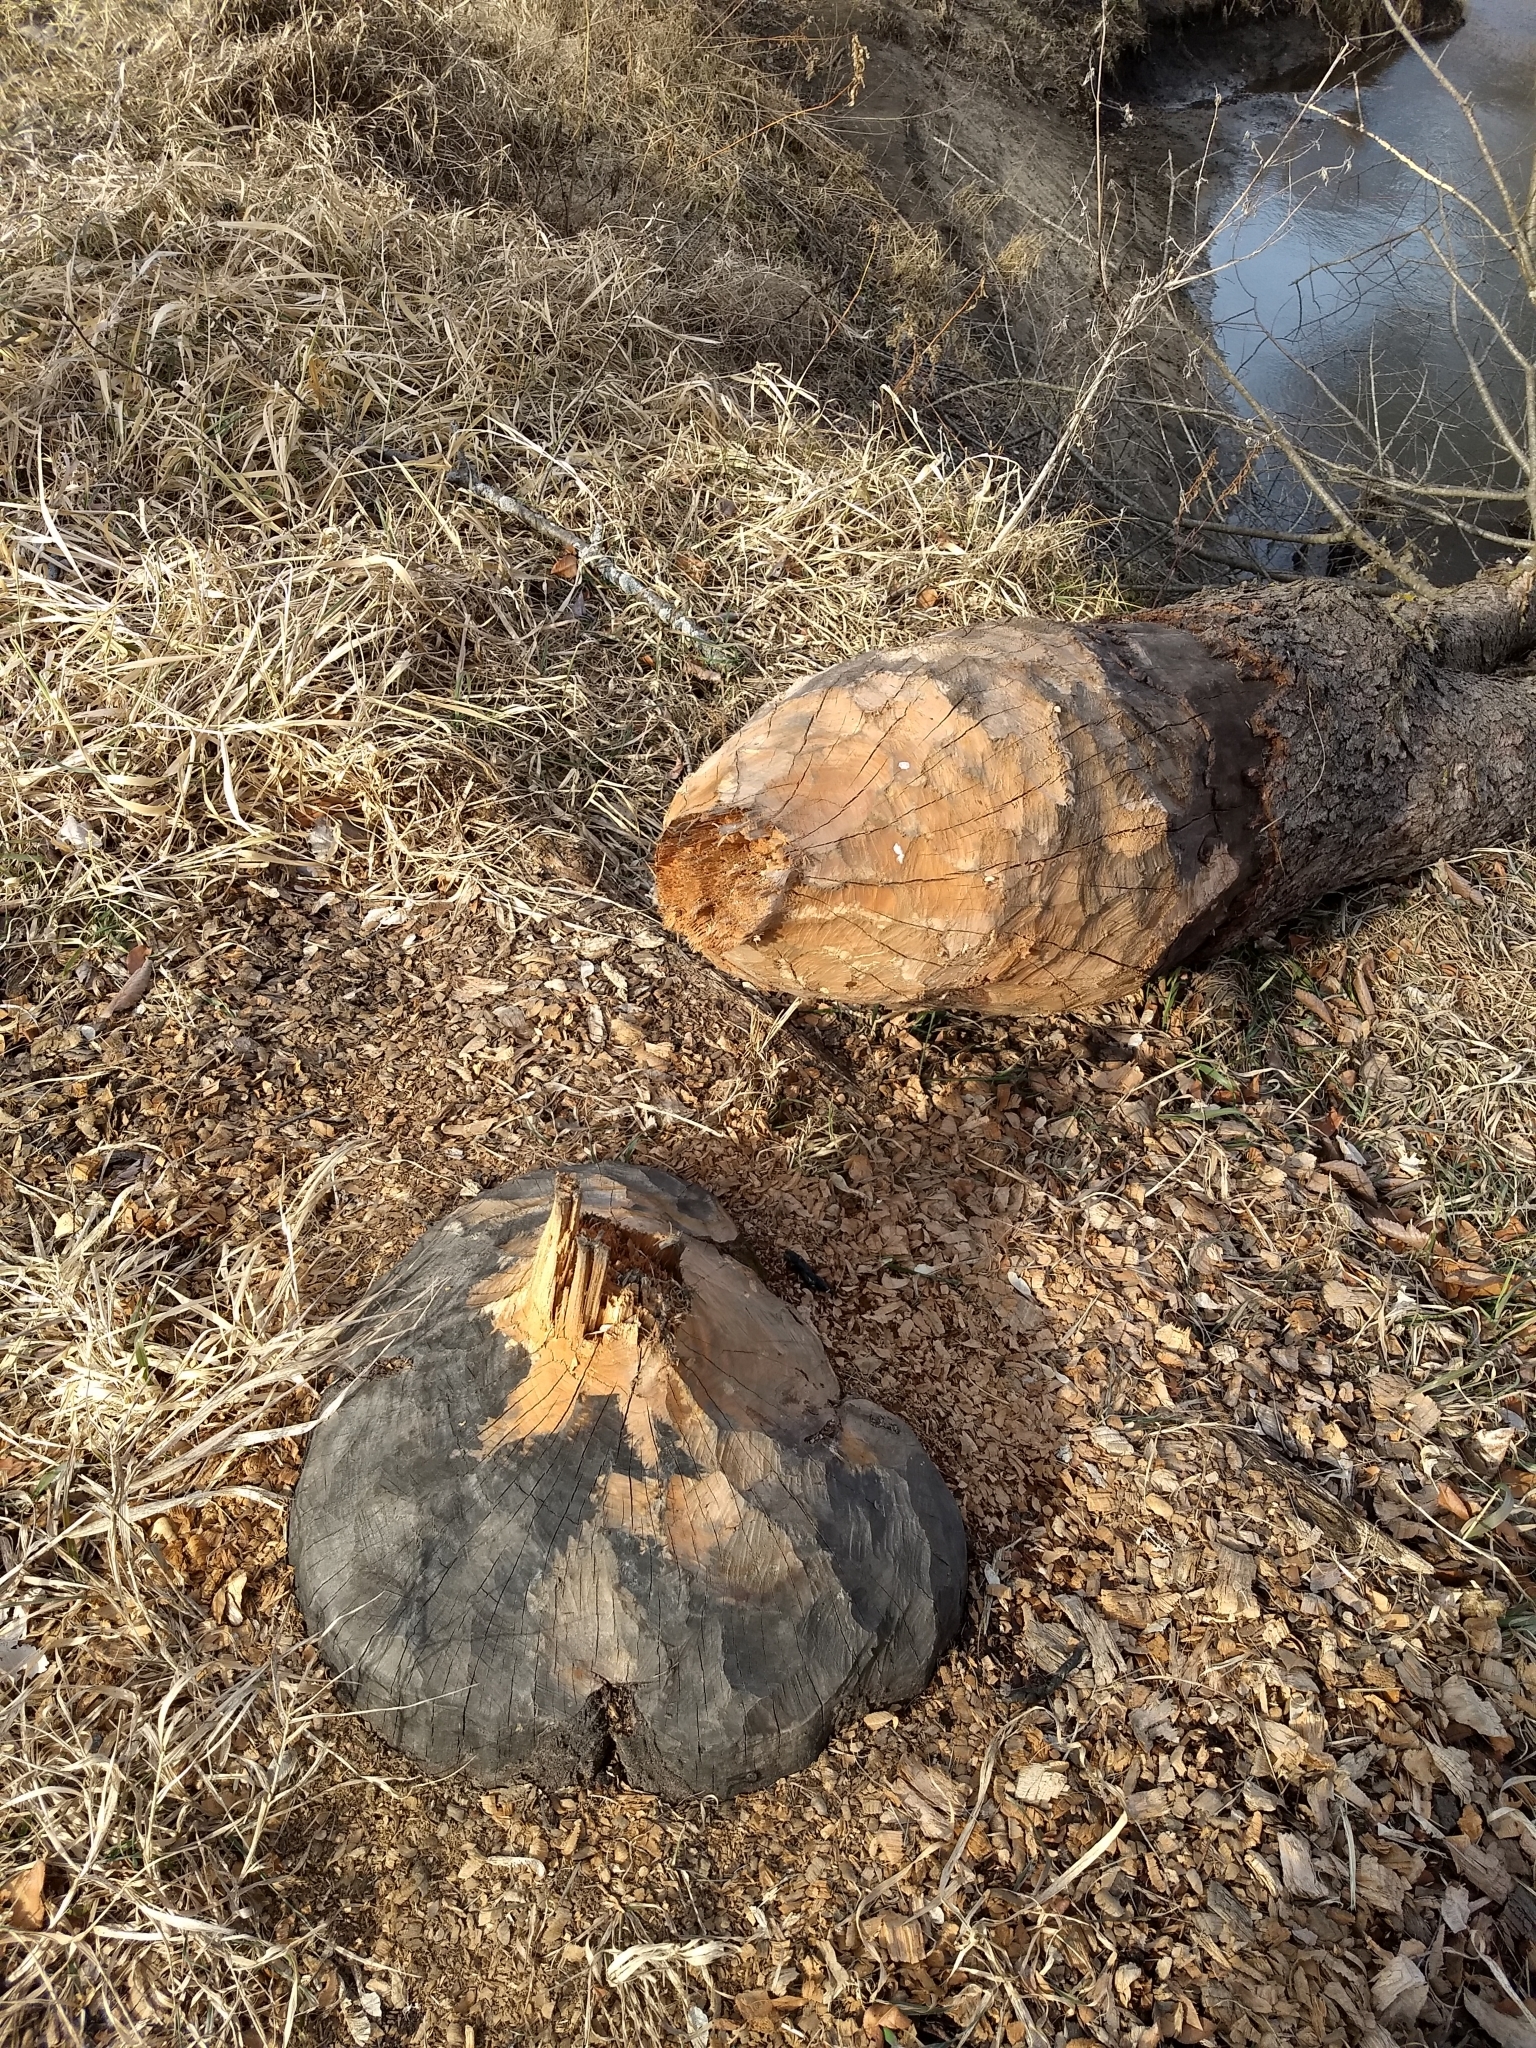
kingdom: Animalia
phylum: Chordata
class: Mammalia
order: Rodentia
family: Castoridae
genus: Castor
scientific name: Castor canadensis
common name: American beaver
